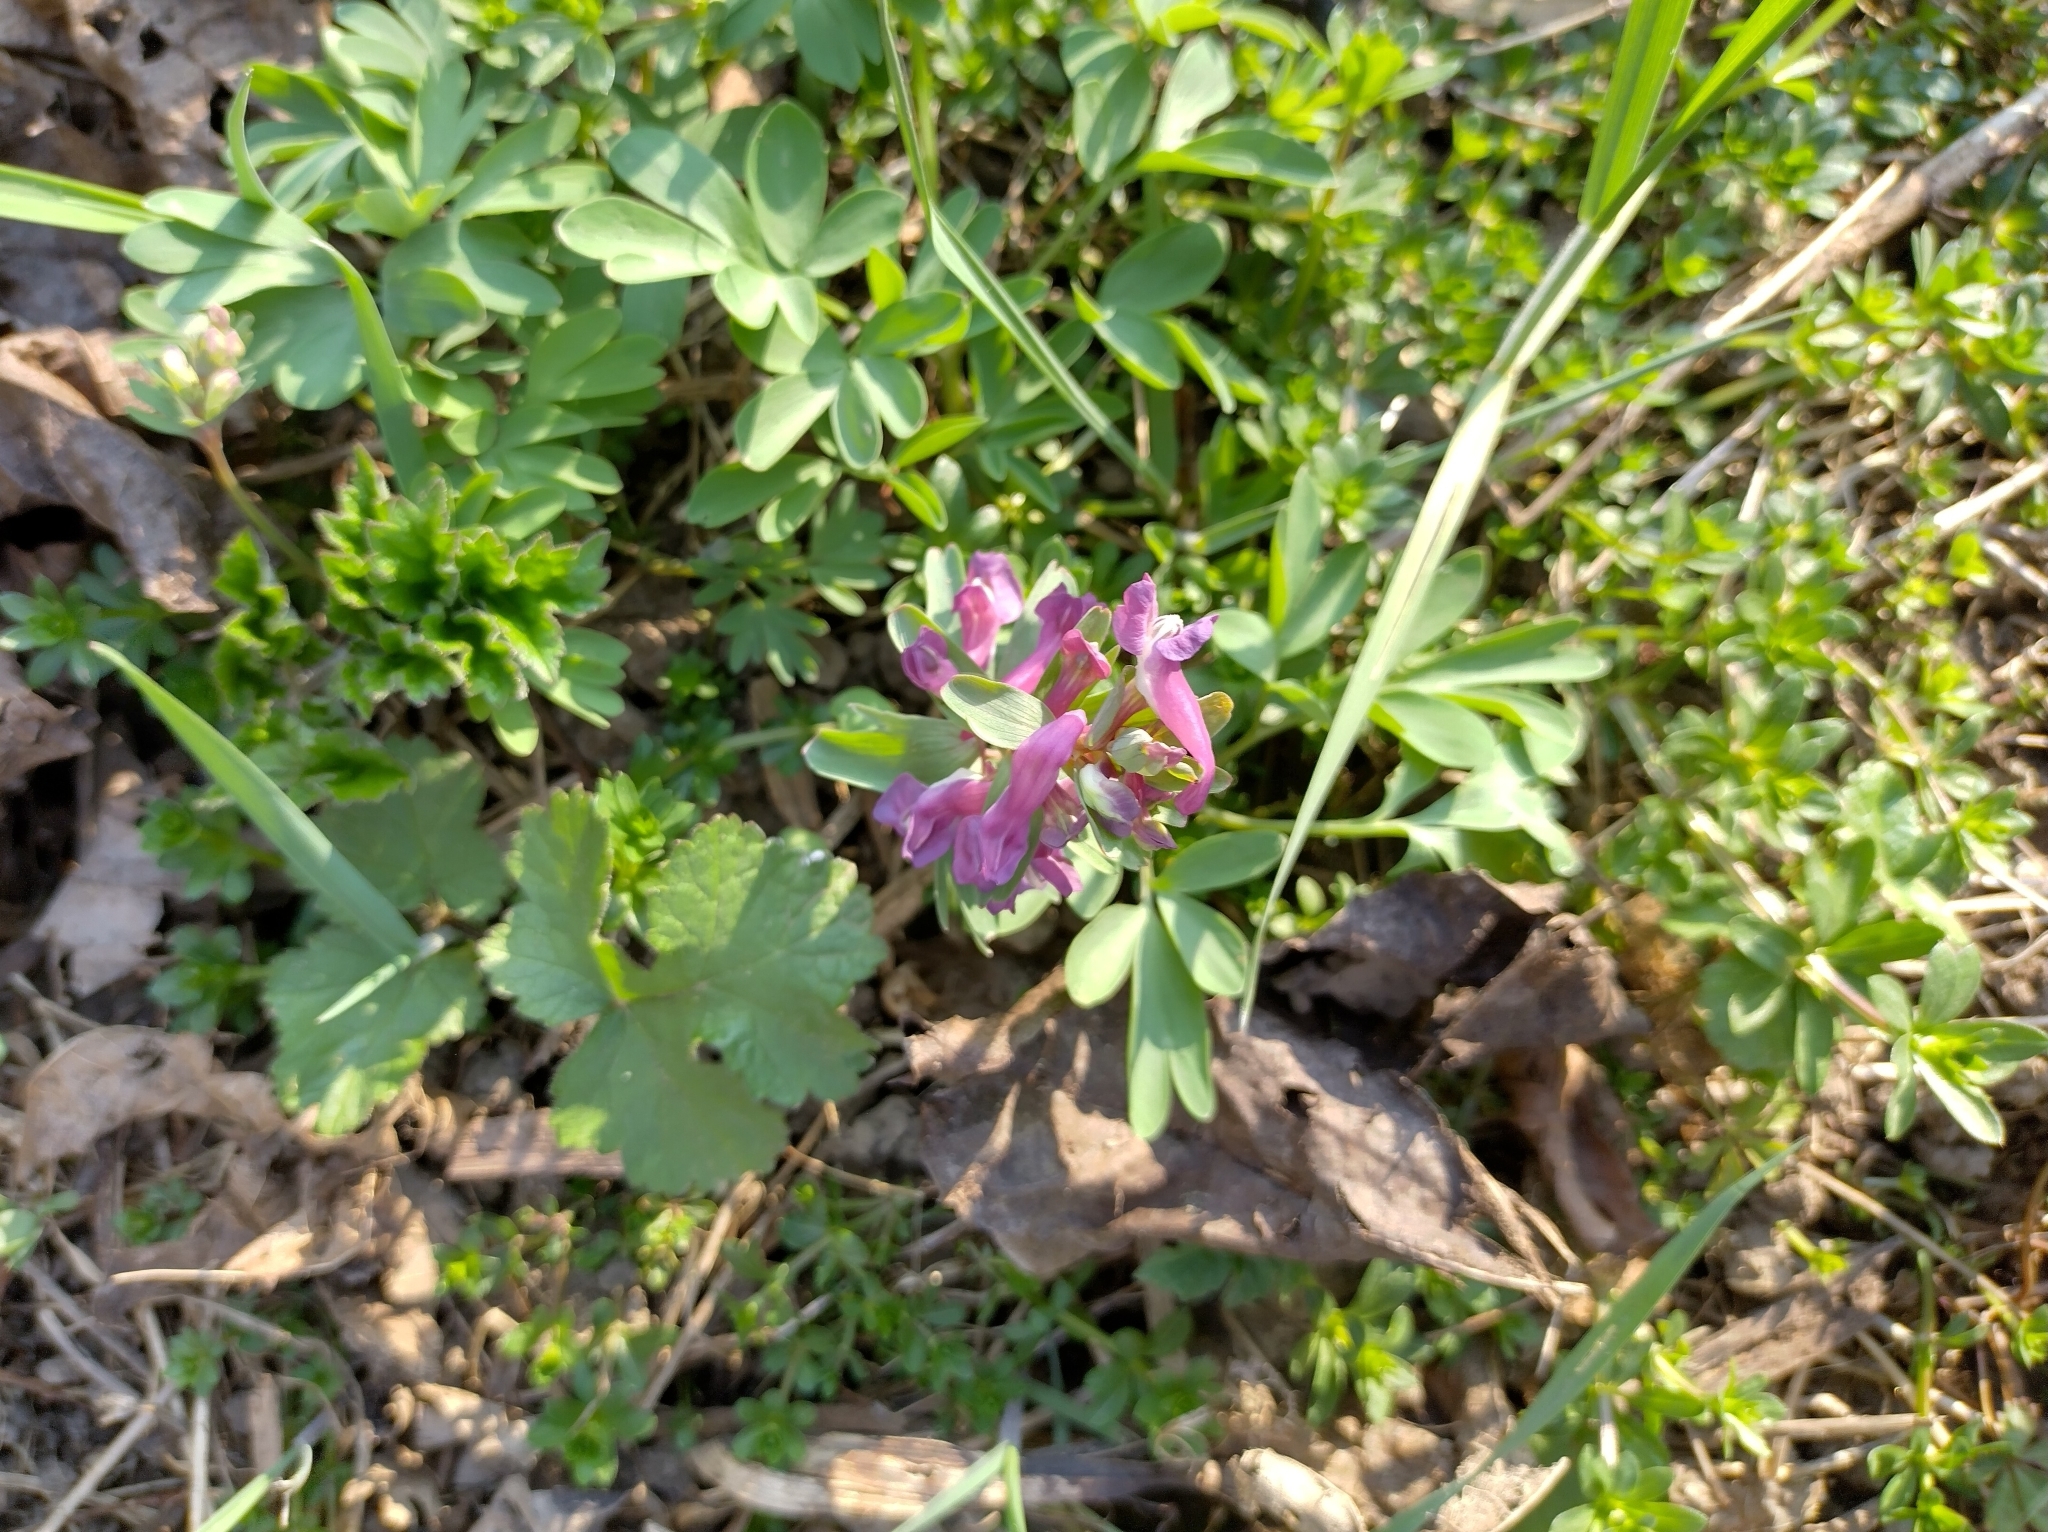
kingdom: Plantae
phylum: Tracheophyta
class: Magnoliopsida
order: Ranunculales
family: Papaveraceae
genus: Corydalis
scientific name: Corydalis solida
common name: Bird-in-a-bush
